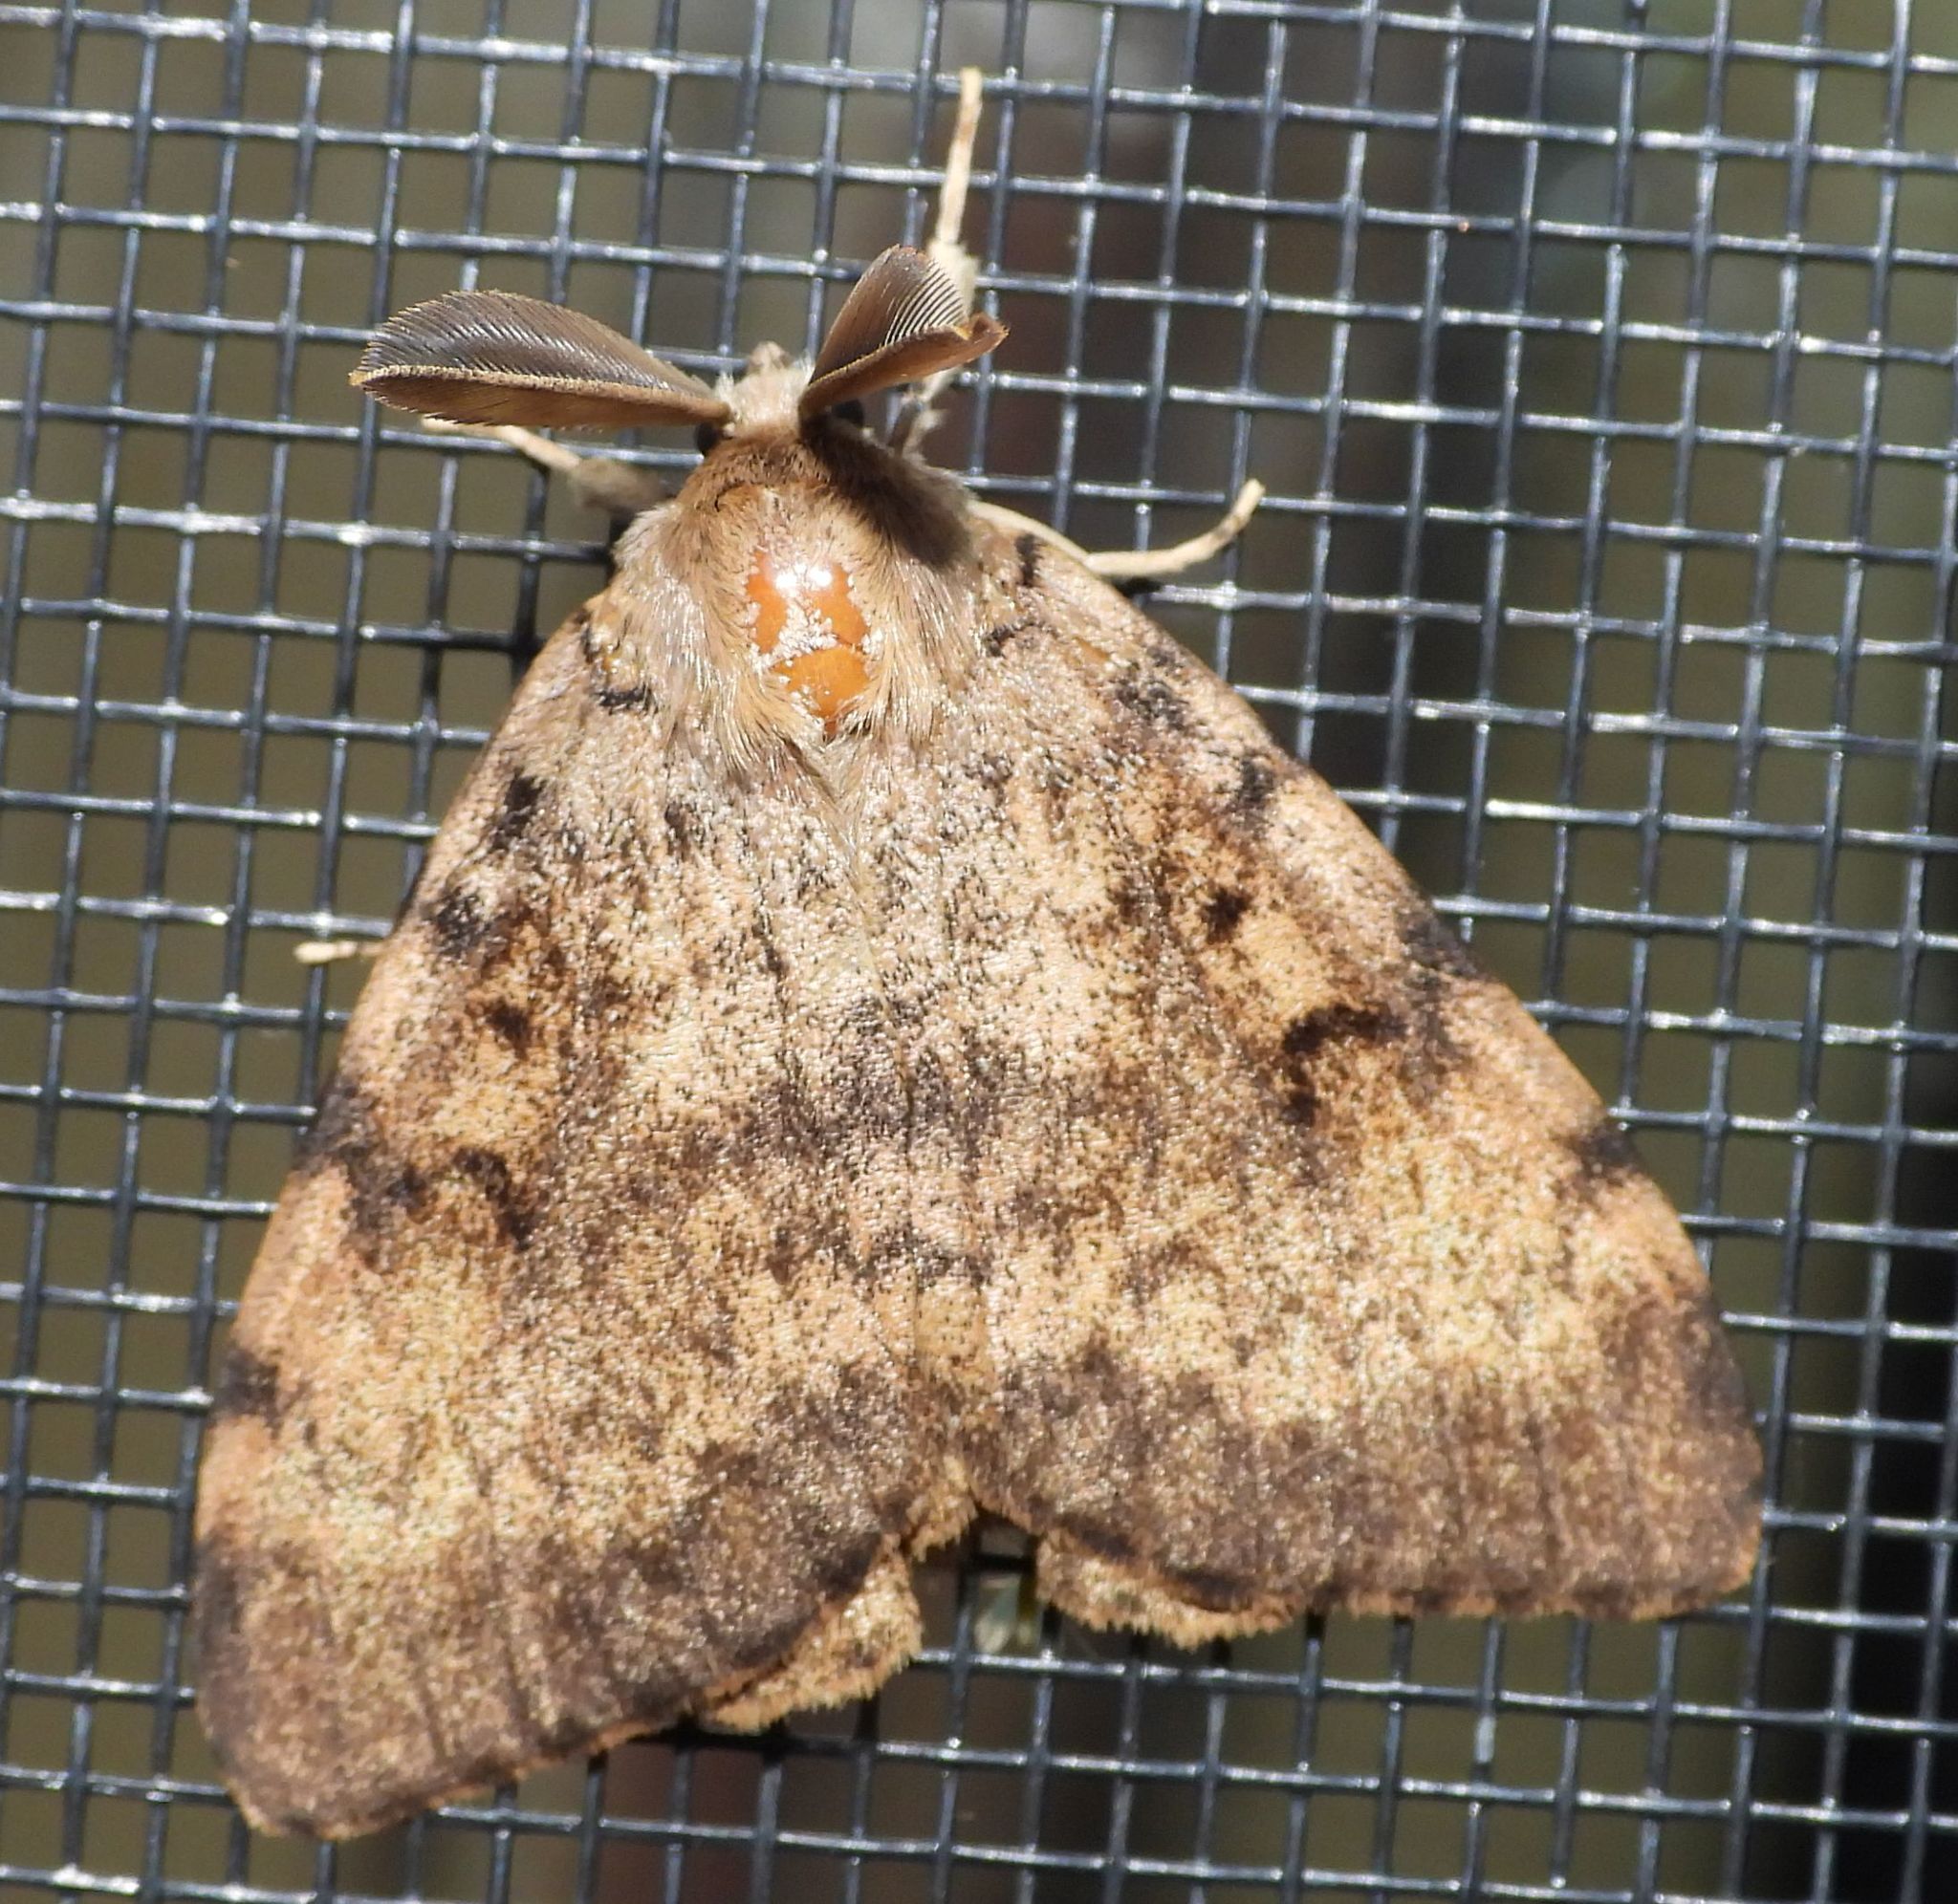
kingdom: Animalia
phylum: Arthropoda
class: Insecta
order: Lepidoptera
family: Erebidae
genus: Lymantria
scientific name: Lymantria dispar
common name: Gypsy moth
